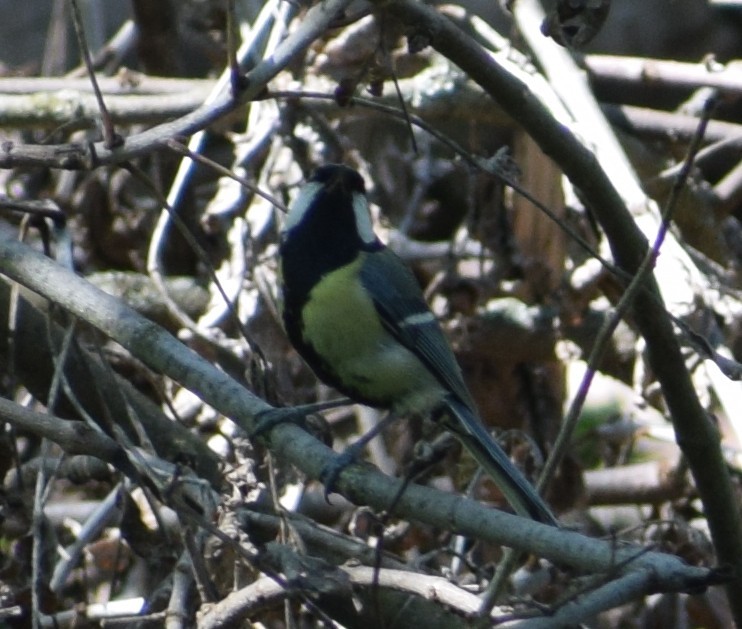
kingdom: Animalia
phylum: Chordata
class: Aves
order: Passeriformes
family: Paridae
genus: Parus
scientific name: Parus major
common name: Great tit
